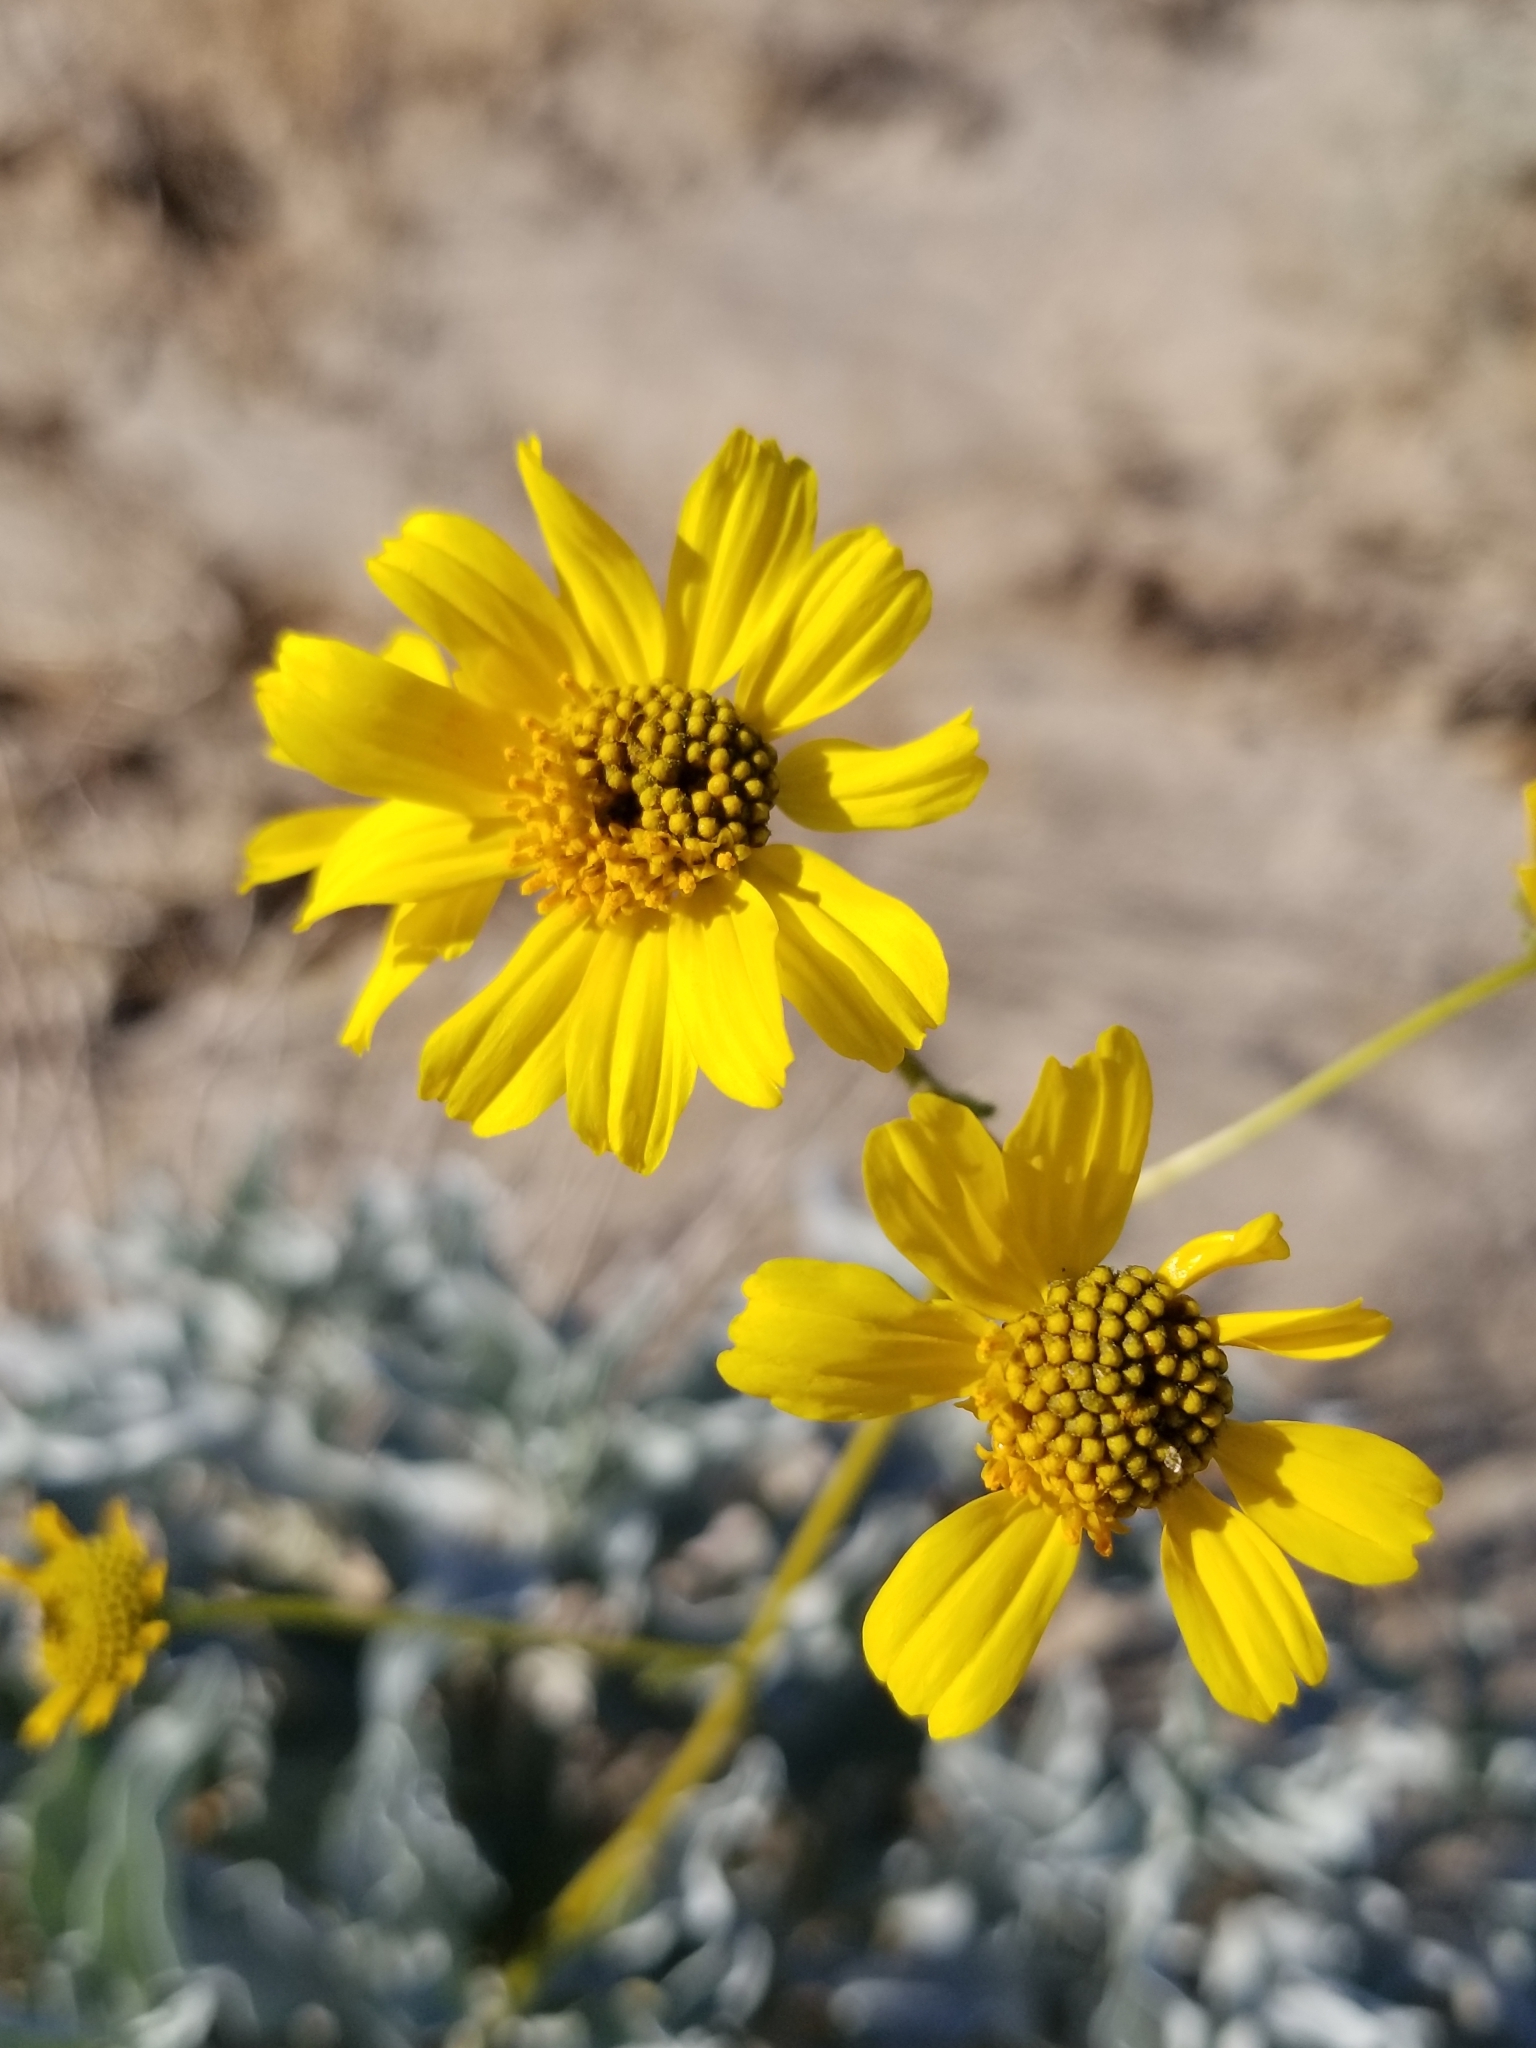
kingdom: Plantae
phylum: Tracheophyta
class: Magnoliopsida
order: Asterales
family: Asteraceae
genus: Encelia
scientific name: Encelia farinosa
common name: Brittlebush
